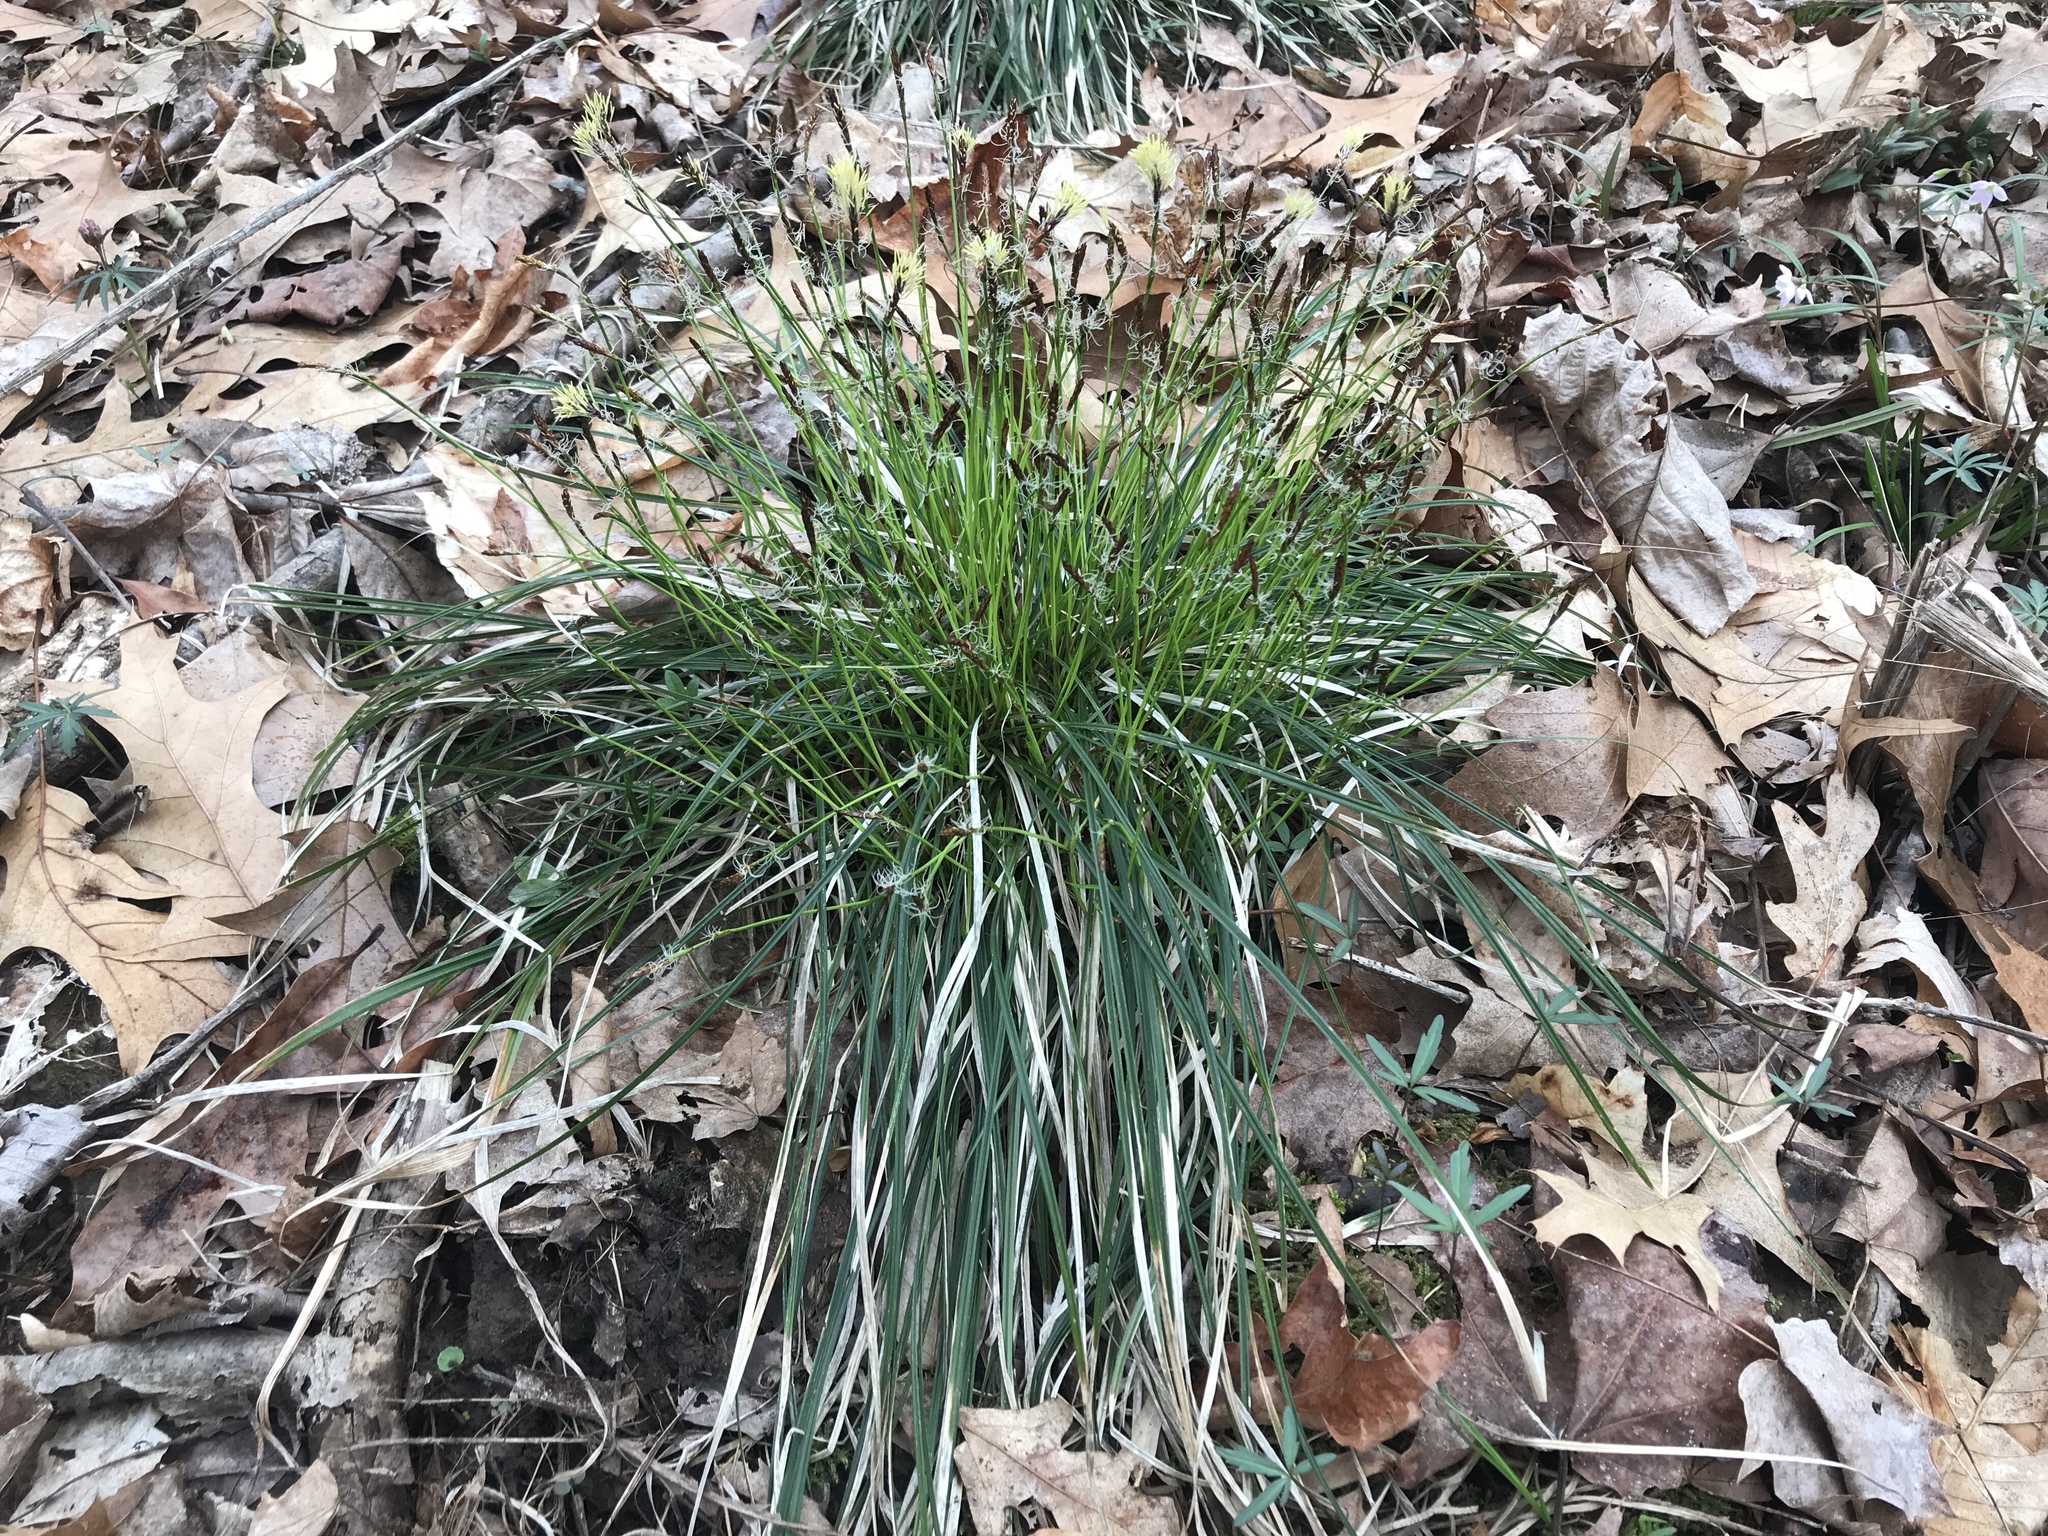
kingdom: Plantae
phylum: Tracheophyta
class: Liliopsida
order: Poales
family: Cyperaceae
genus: Carex
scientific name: Carex pensylvanica
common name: Common oak sedge
